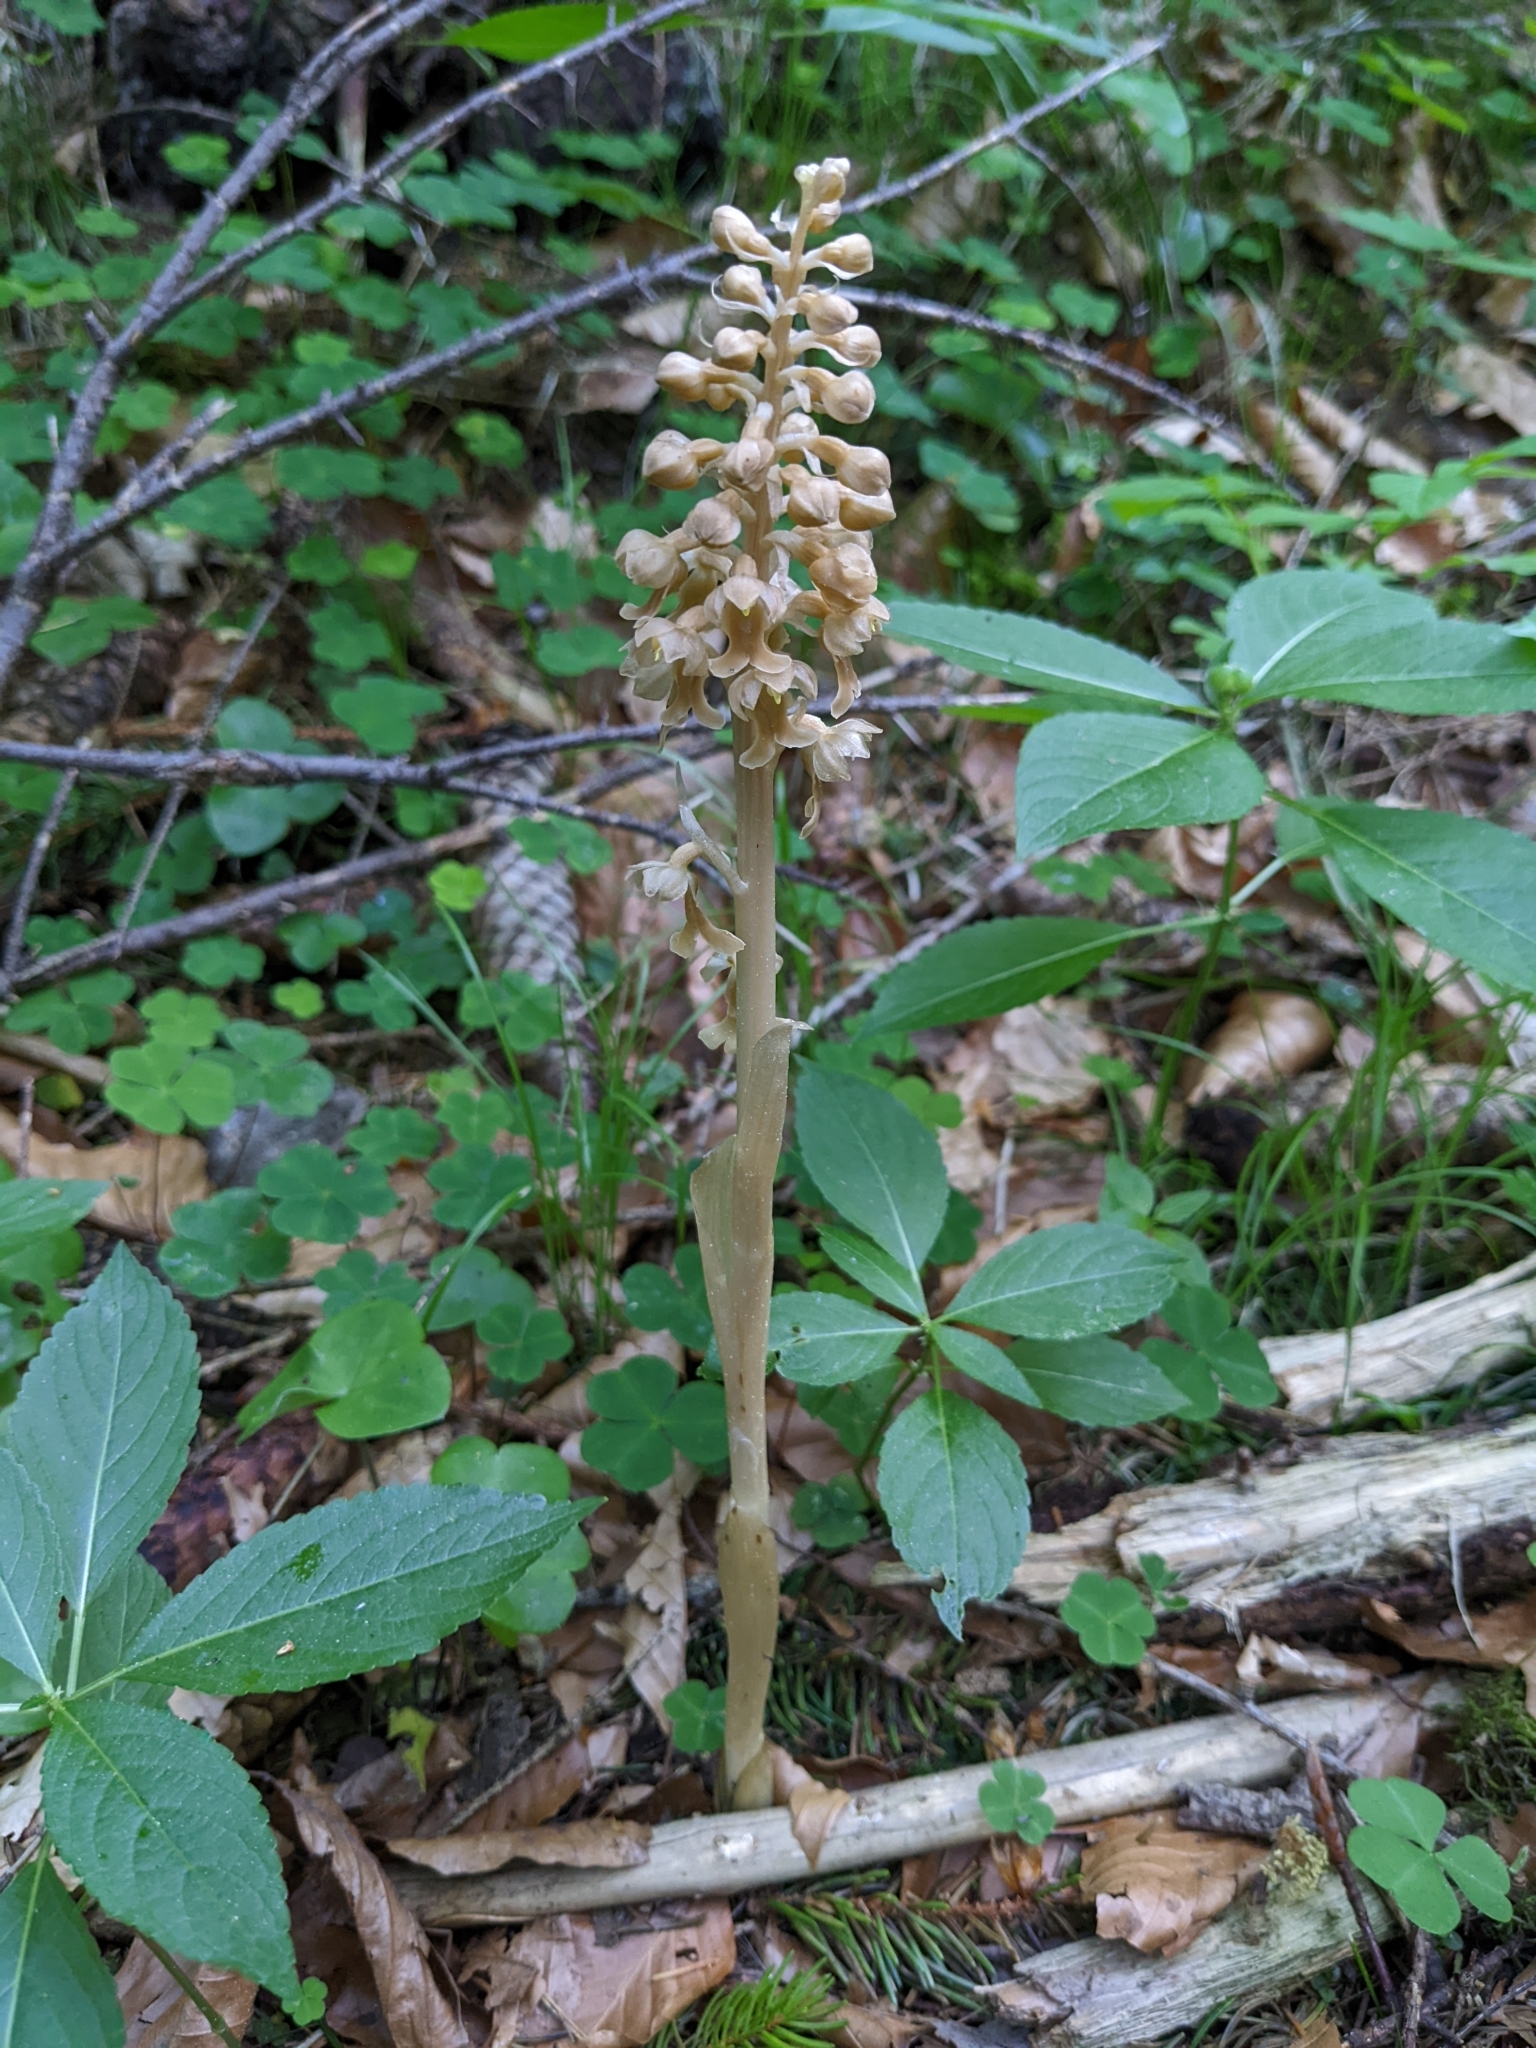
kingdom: Plantae
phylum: Tracheophyta
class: Liliopsida
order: Asparagales
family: Orchidaceae
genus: Neottia
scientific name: Neottia nidus-avis
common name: Bird's-nest orchid
